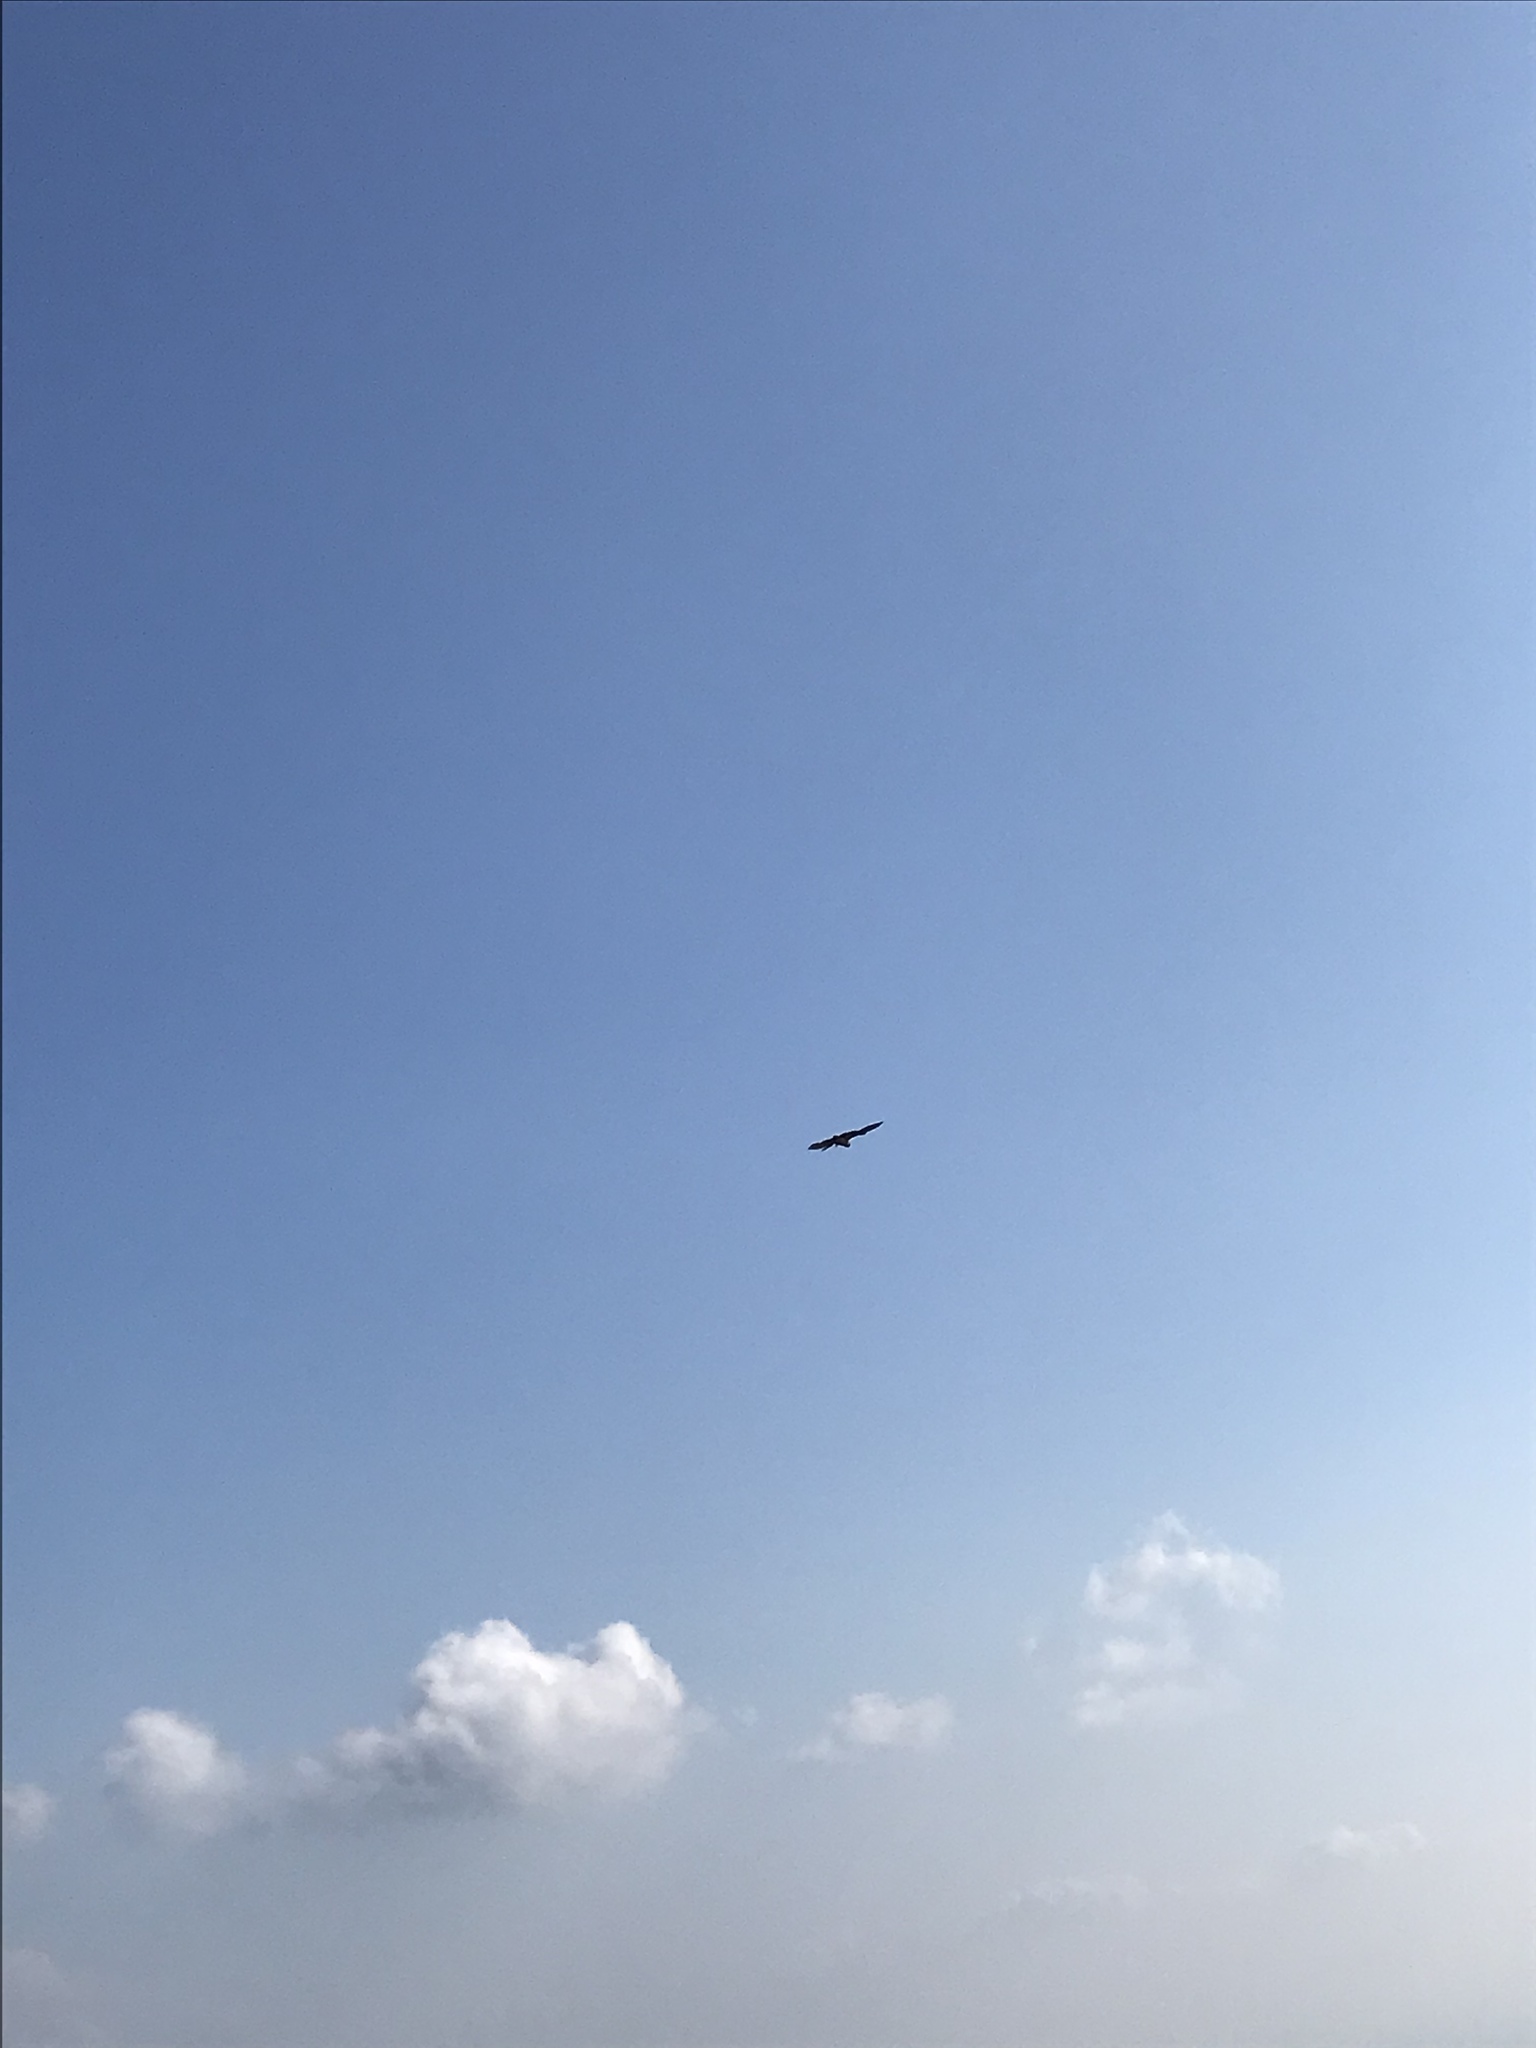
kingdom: Animalia
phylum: Chordata
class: Aves
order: Falconiformes
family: Falconidae
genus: Falco
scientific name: Falco tinnunculus
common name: Common kestrel
